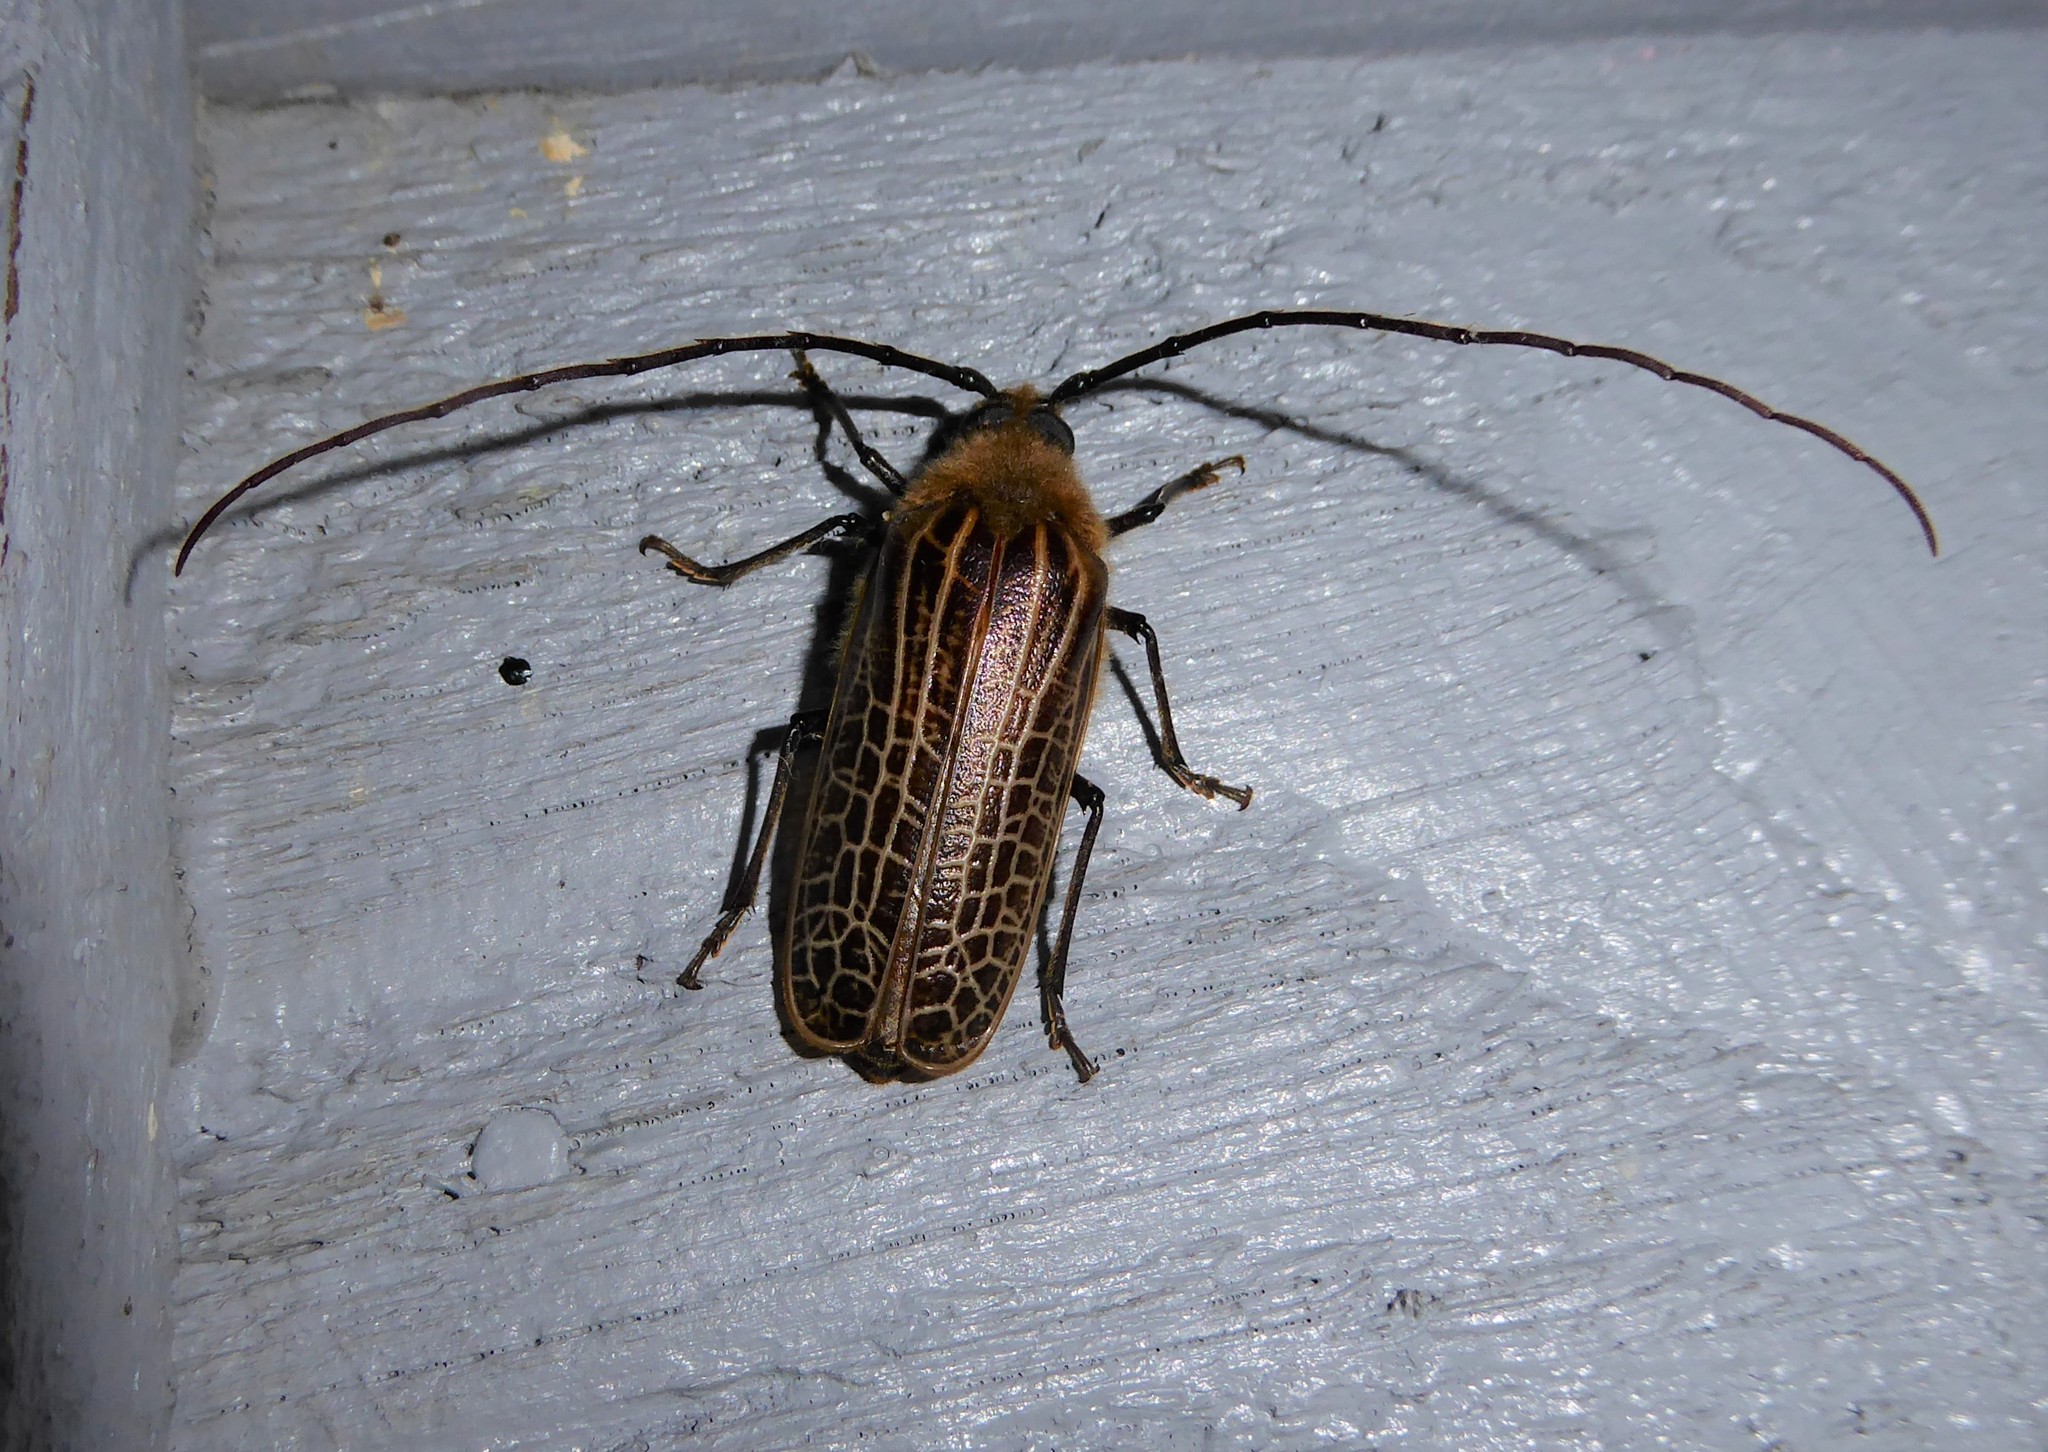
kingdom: Animalia
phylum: Arthropoda
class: Insecta
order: Coleoptera
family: Cerambycidae
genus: Prionoplus
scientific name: Prionoplus reticularis
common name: Huhu beetle
